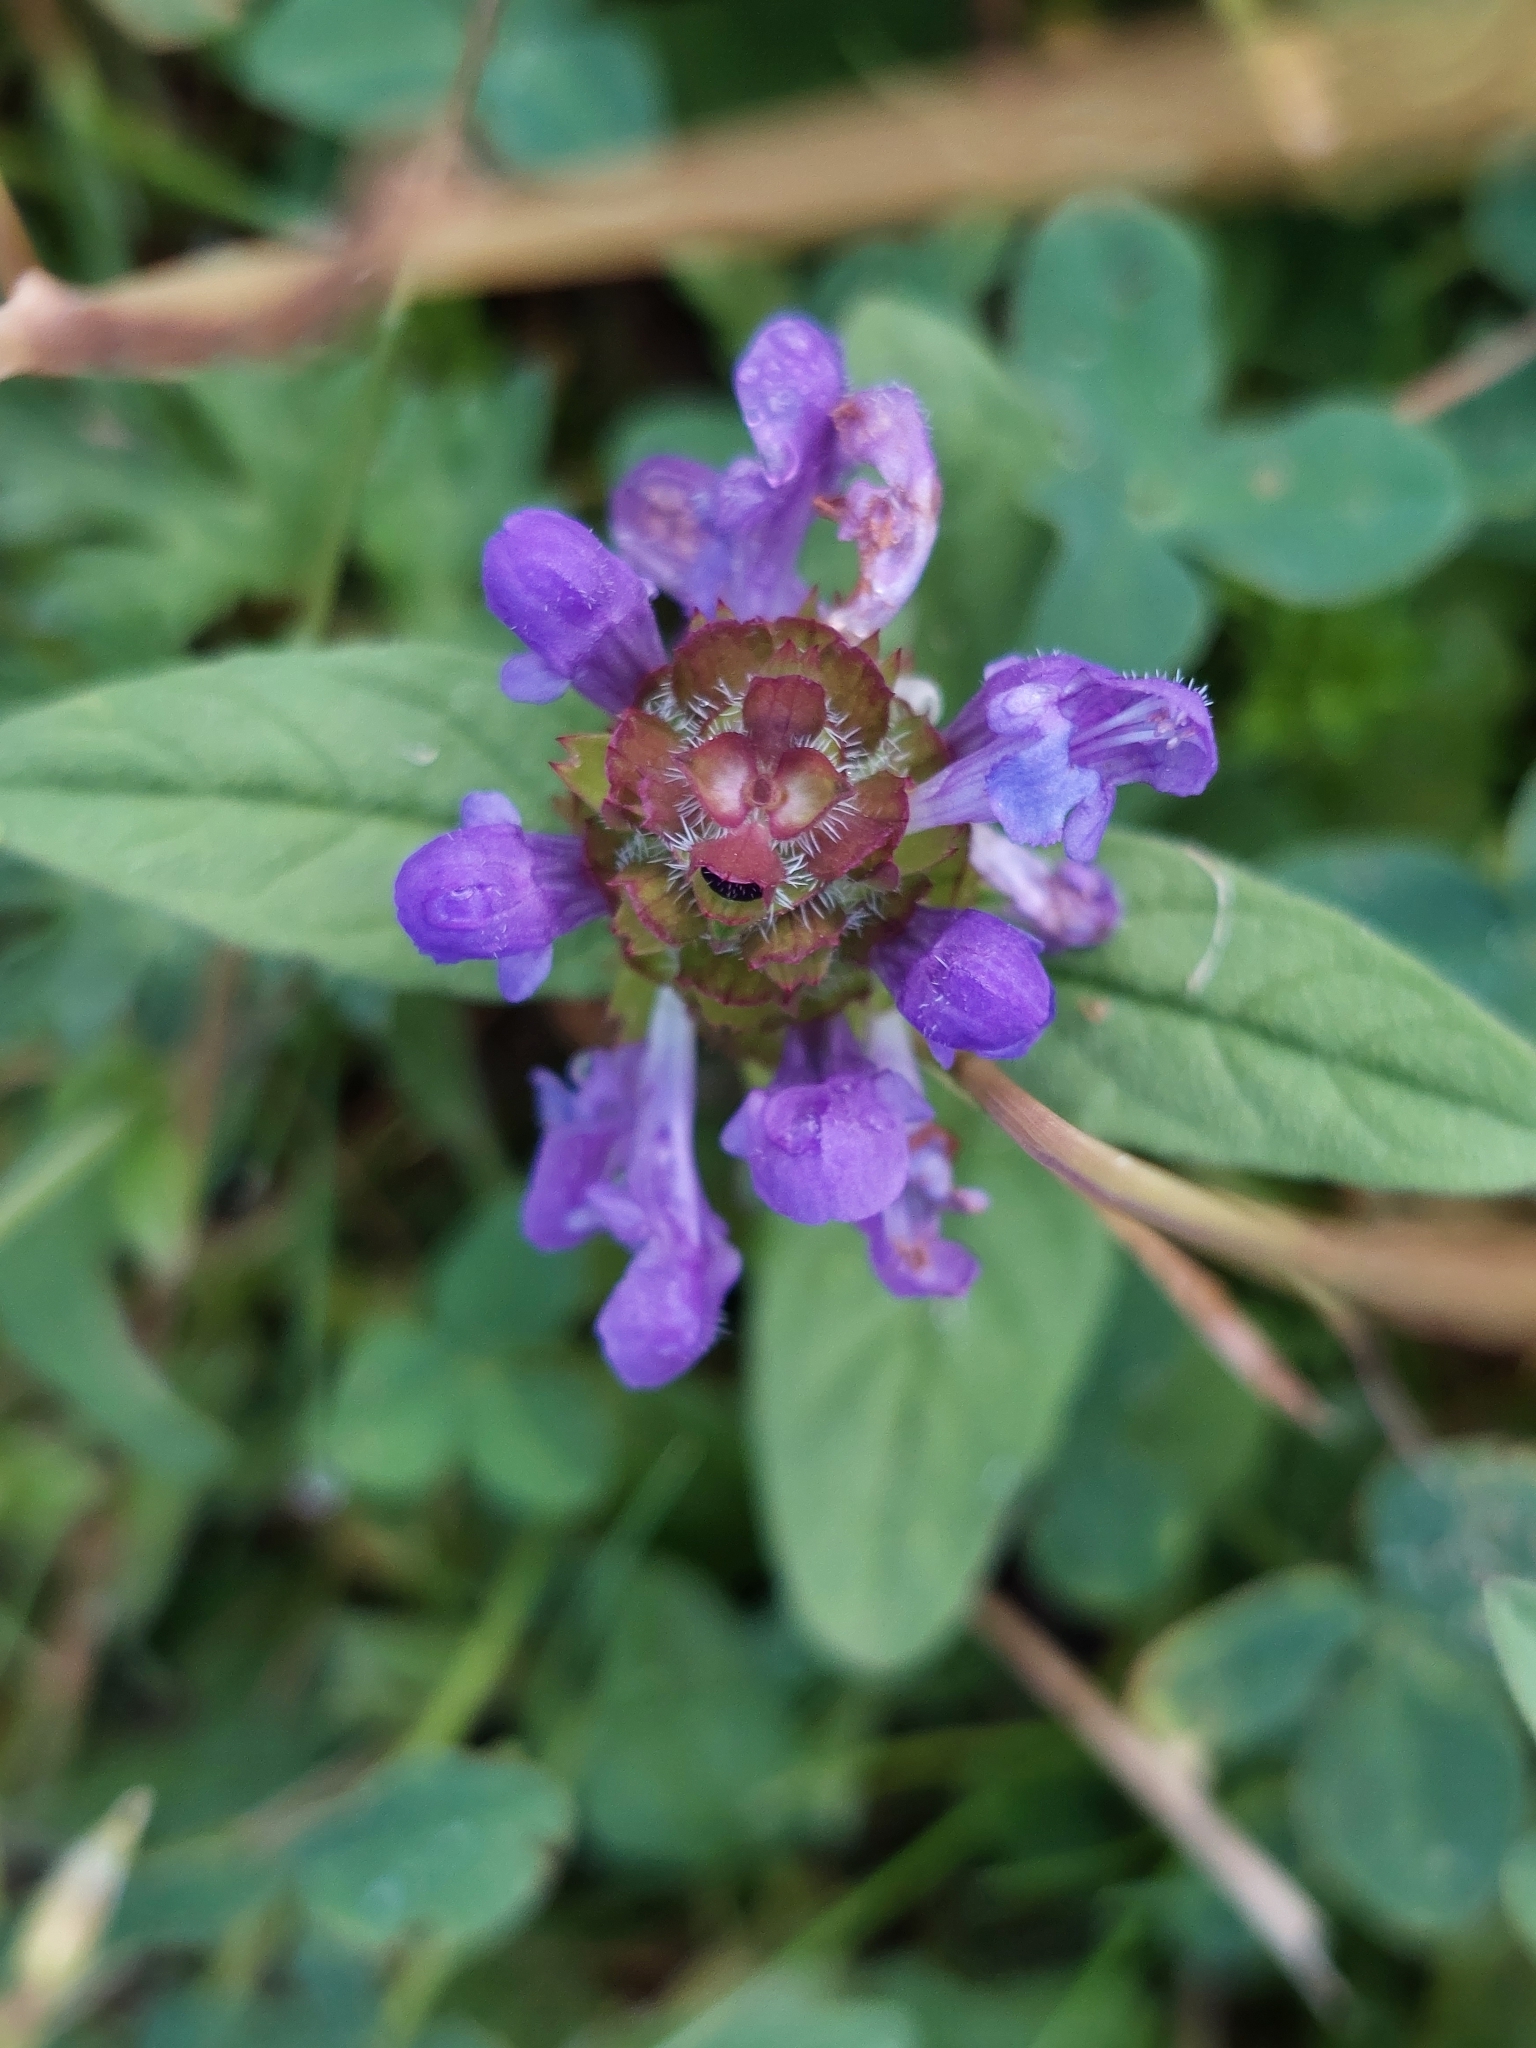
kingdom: Plantae
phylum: Tracheophyta
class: Magnoliopsida
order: Lamiales
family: Lamiaceae
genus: Prunella
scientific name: Prunella vulgaris
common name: Heal-all
